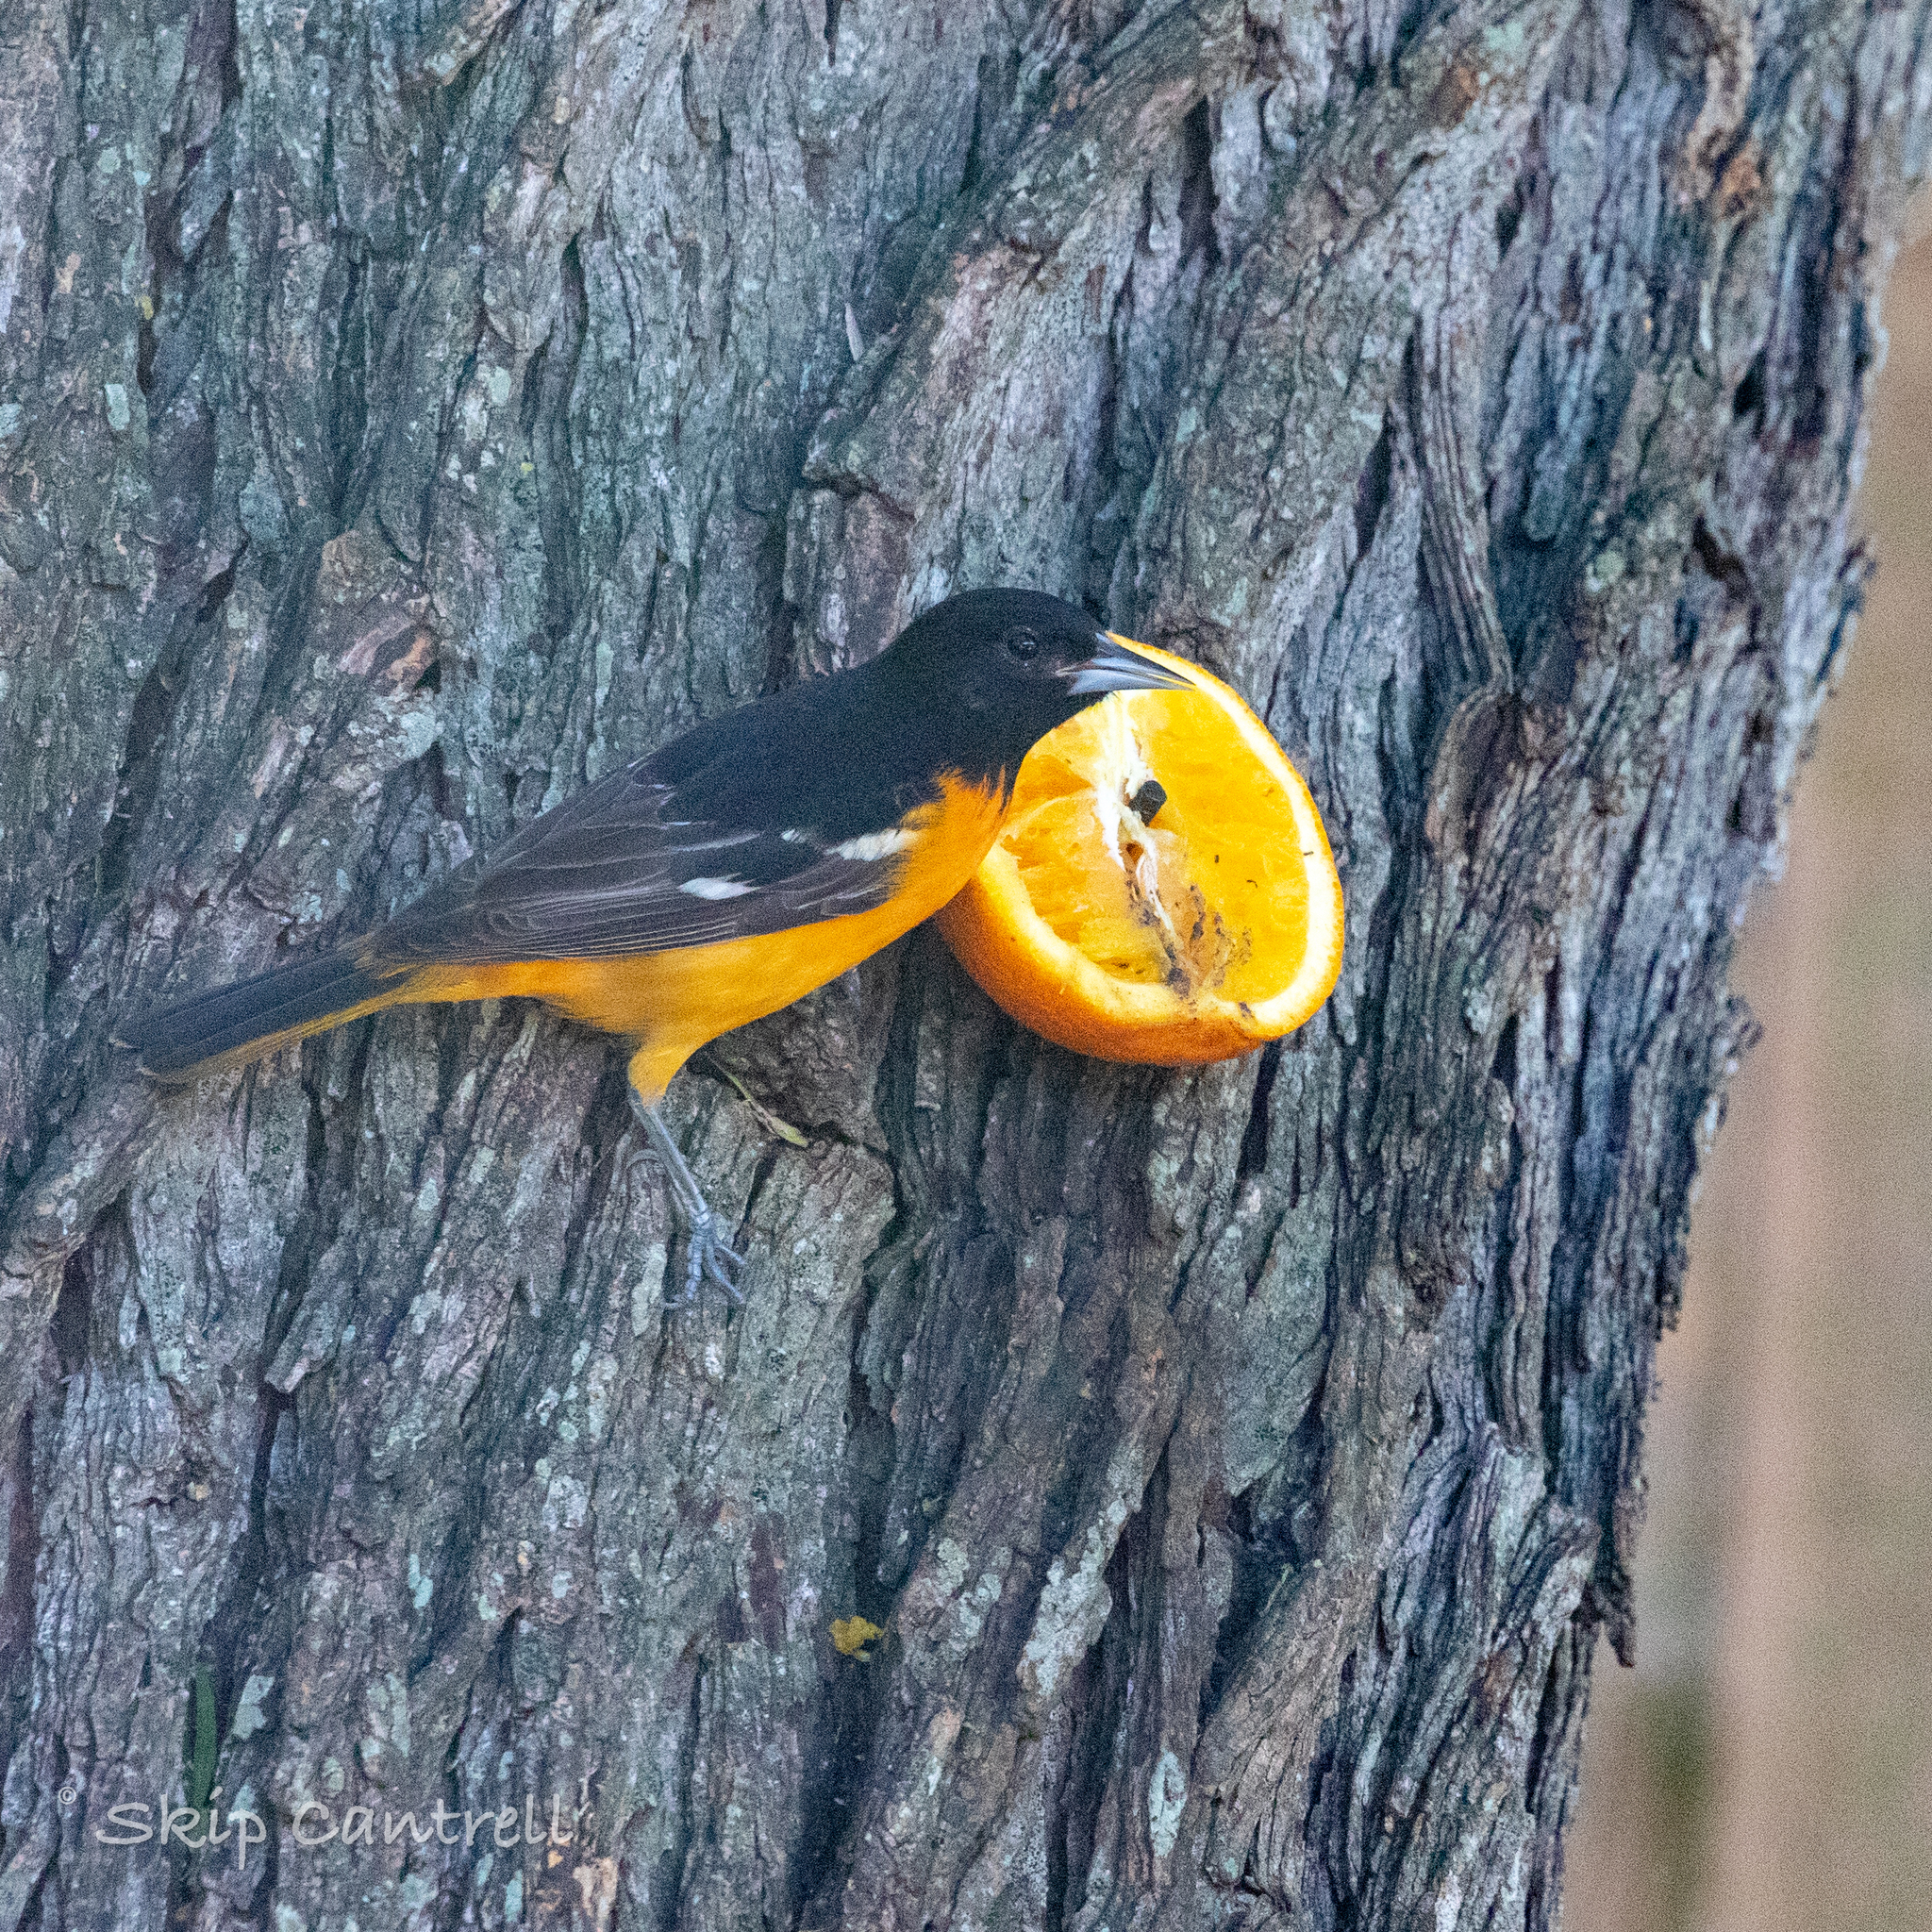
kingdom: Animalia
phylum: Chordata
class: Aves
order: Passeriformes
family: Icteridae
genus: Icterus
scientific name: Icterus galbula
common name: Baltimore oriole
